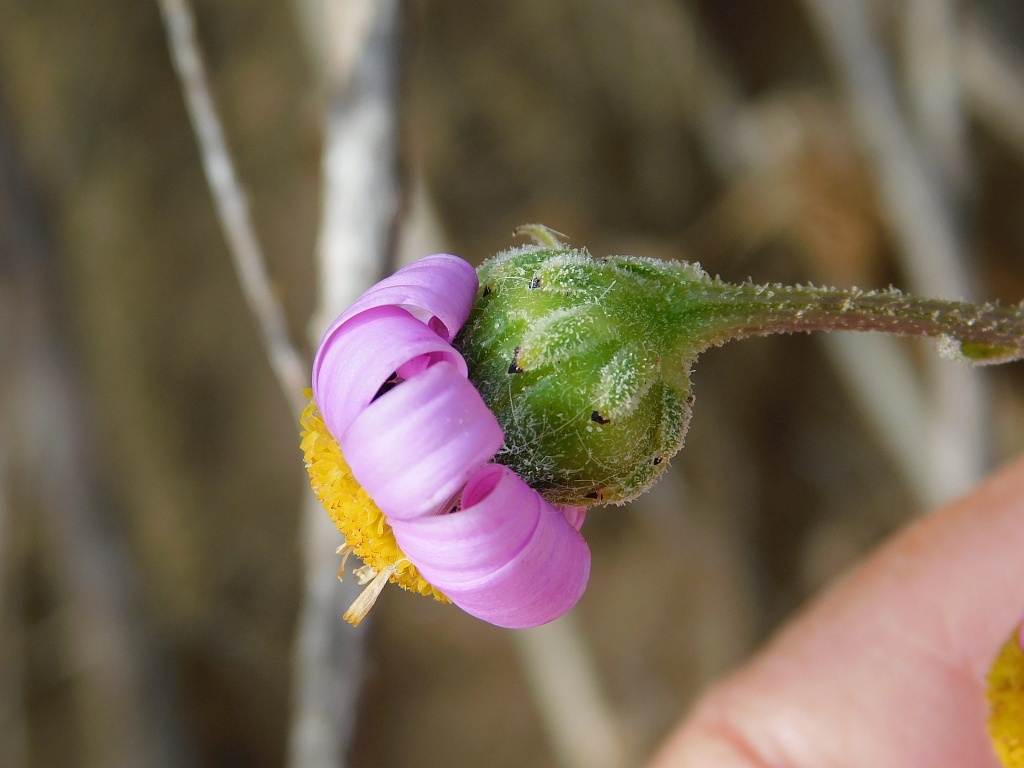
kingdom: Plantae
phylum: Tracheophyta
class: Magnoliopsida
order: Asterales
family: Asteraceae
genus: Senecio
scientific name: Senecio elegans
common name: Purple groundsel
